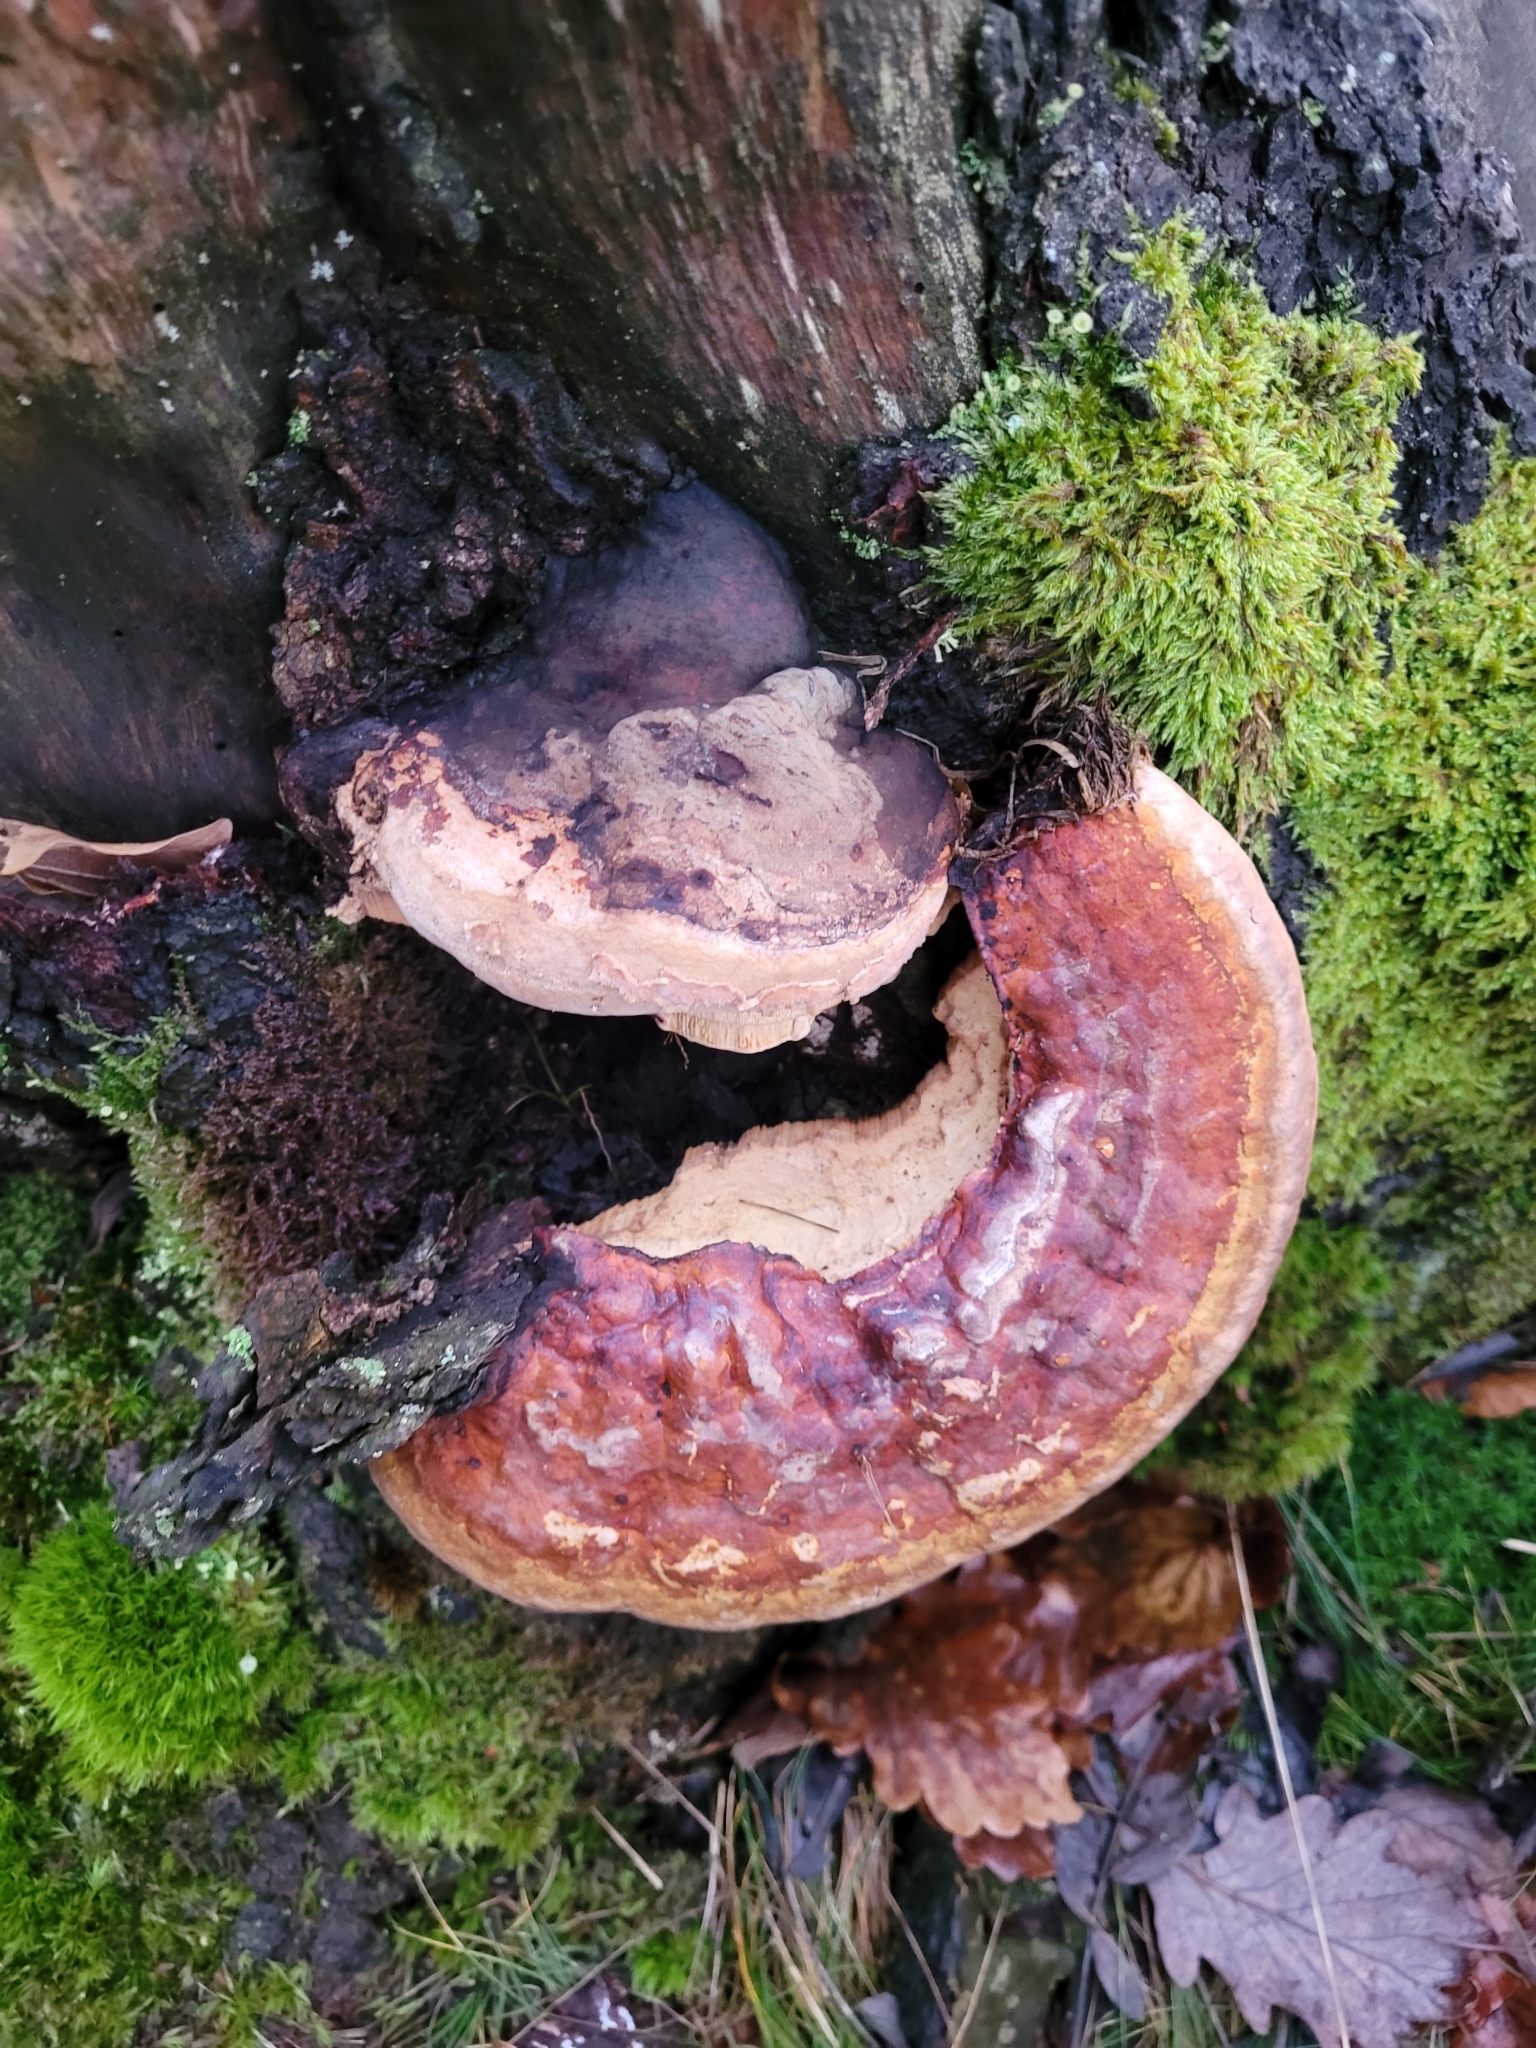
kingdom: Fungi
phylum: Basidiomycota
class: Agaricomycetes
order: Polyporales
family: Fomitopsidaceae
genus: Fomitopsis
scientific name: Fomitopsis pinicola
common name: Red-belted bracket
